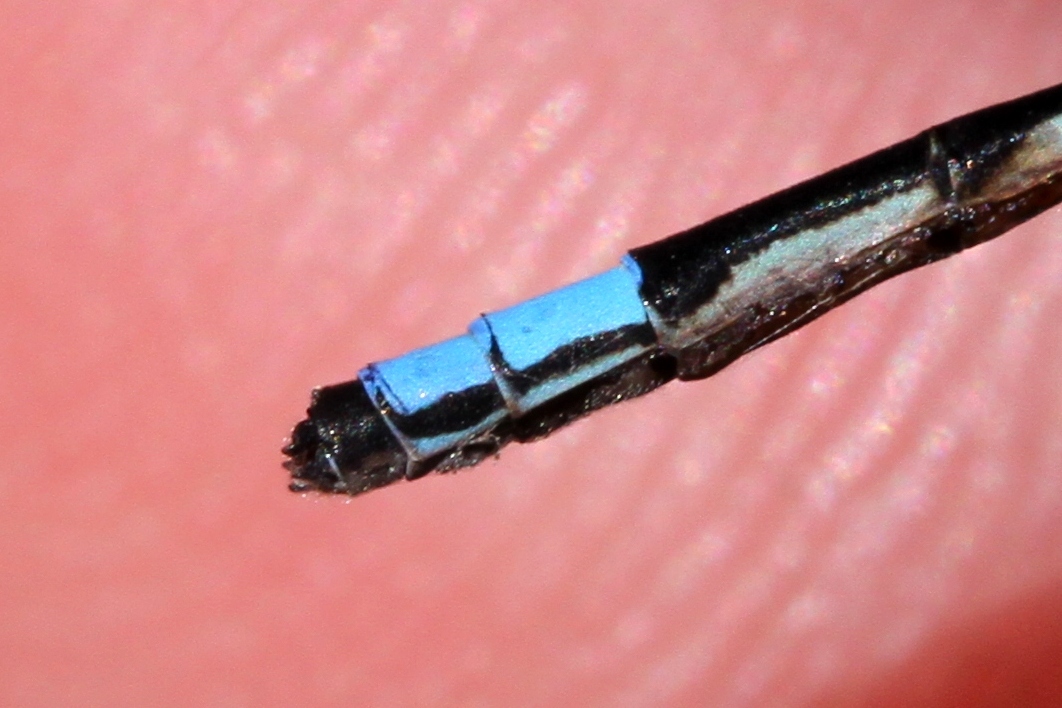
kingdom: Animalia
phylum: Arthropoda
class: Insecta
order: Odonata
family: Coenagrionidae
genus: Enallagma
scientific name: Enallagma geminatum
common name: Skimming bluet
